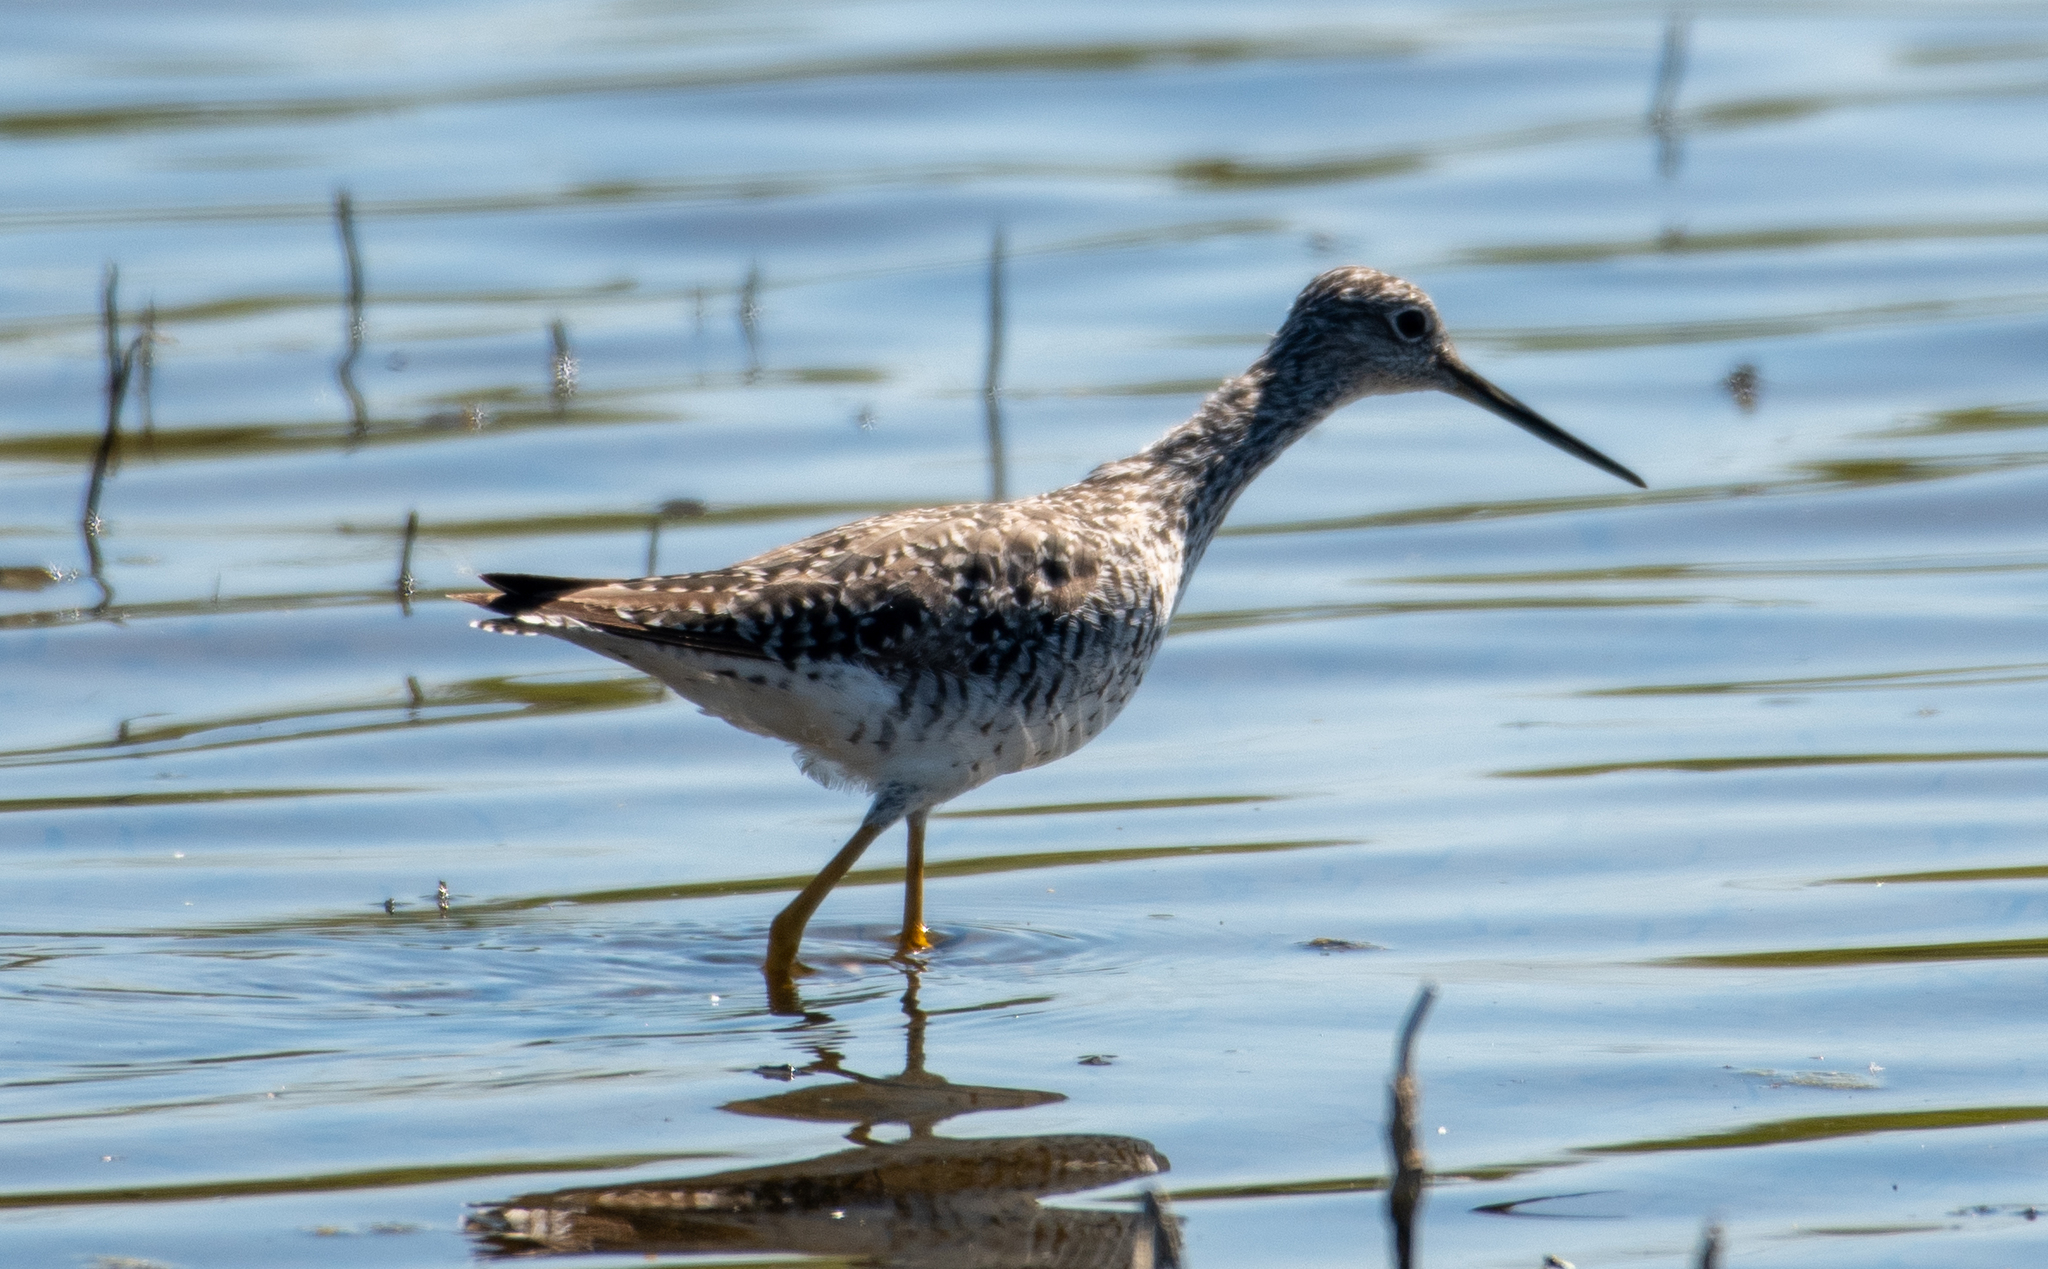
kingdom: Animalia
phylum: Chordata
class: Aves
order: Charadriiformes
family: Scolopacidae
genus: Tringa
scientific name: Tringa melanoleuca
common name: Greater yellowlegs
